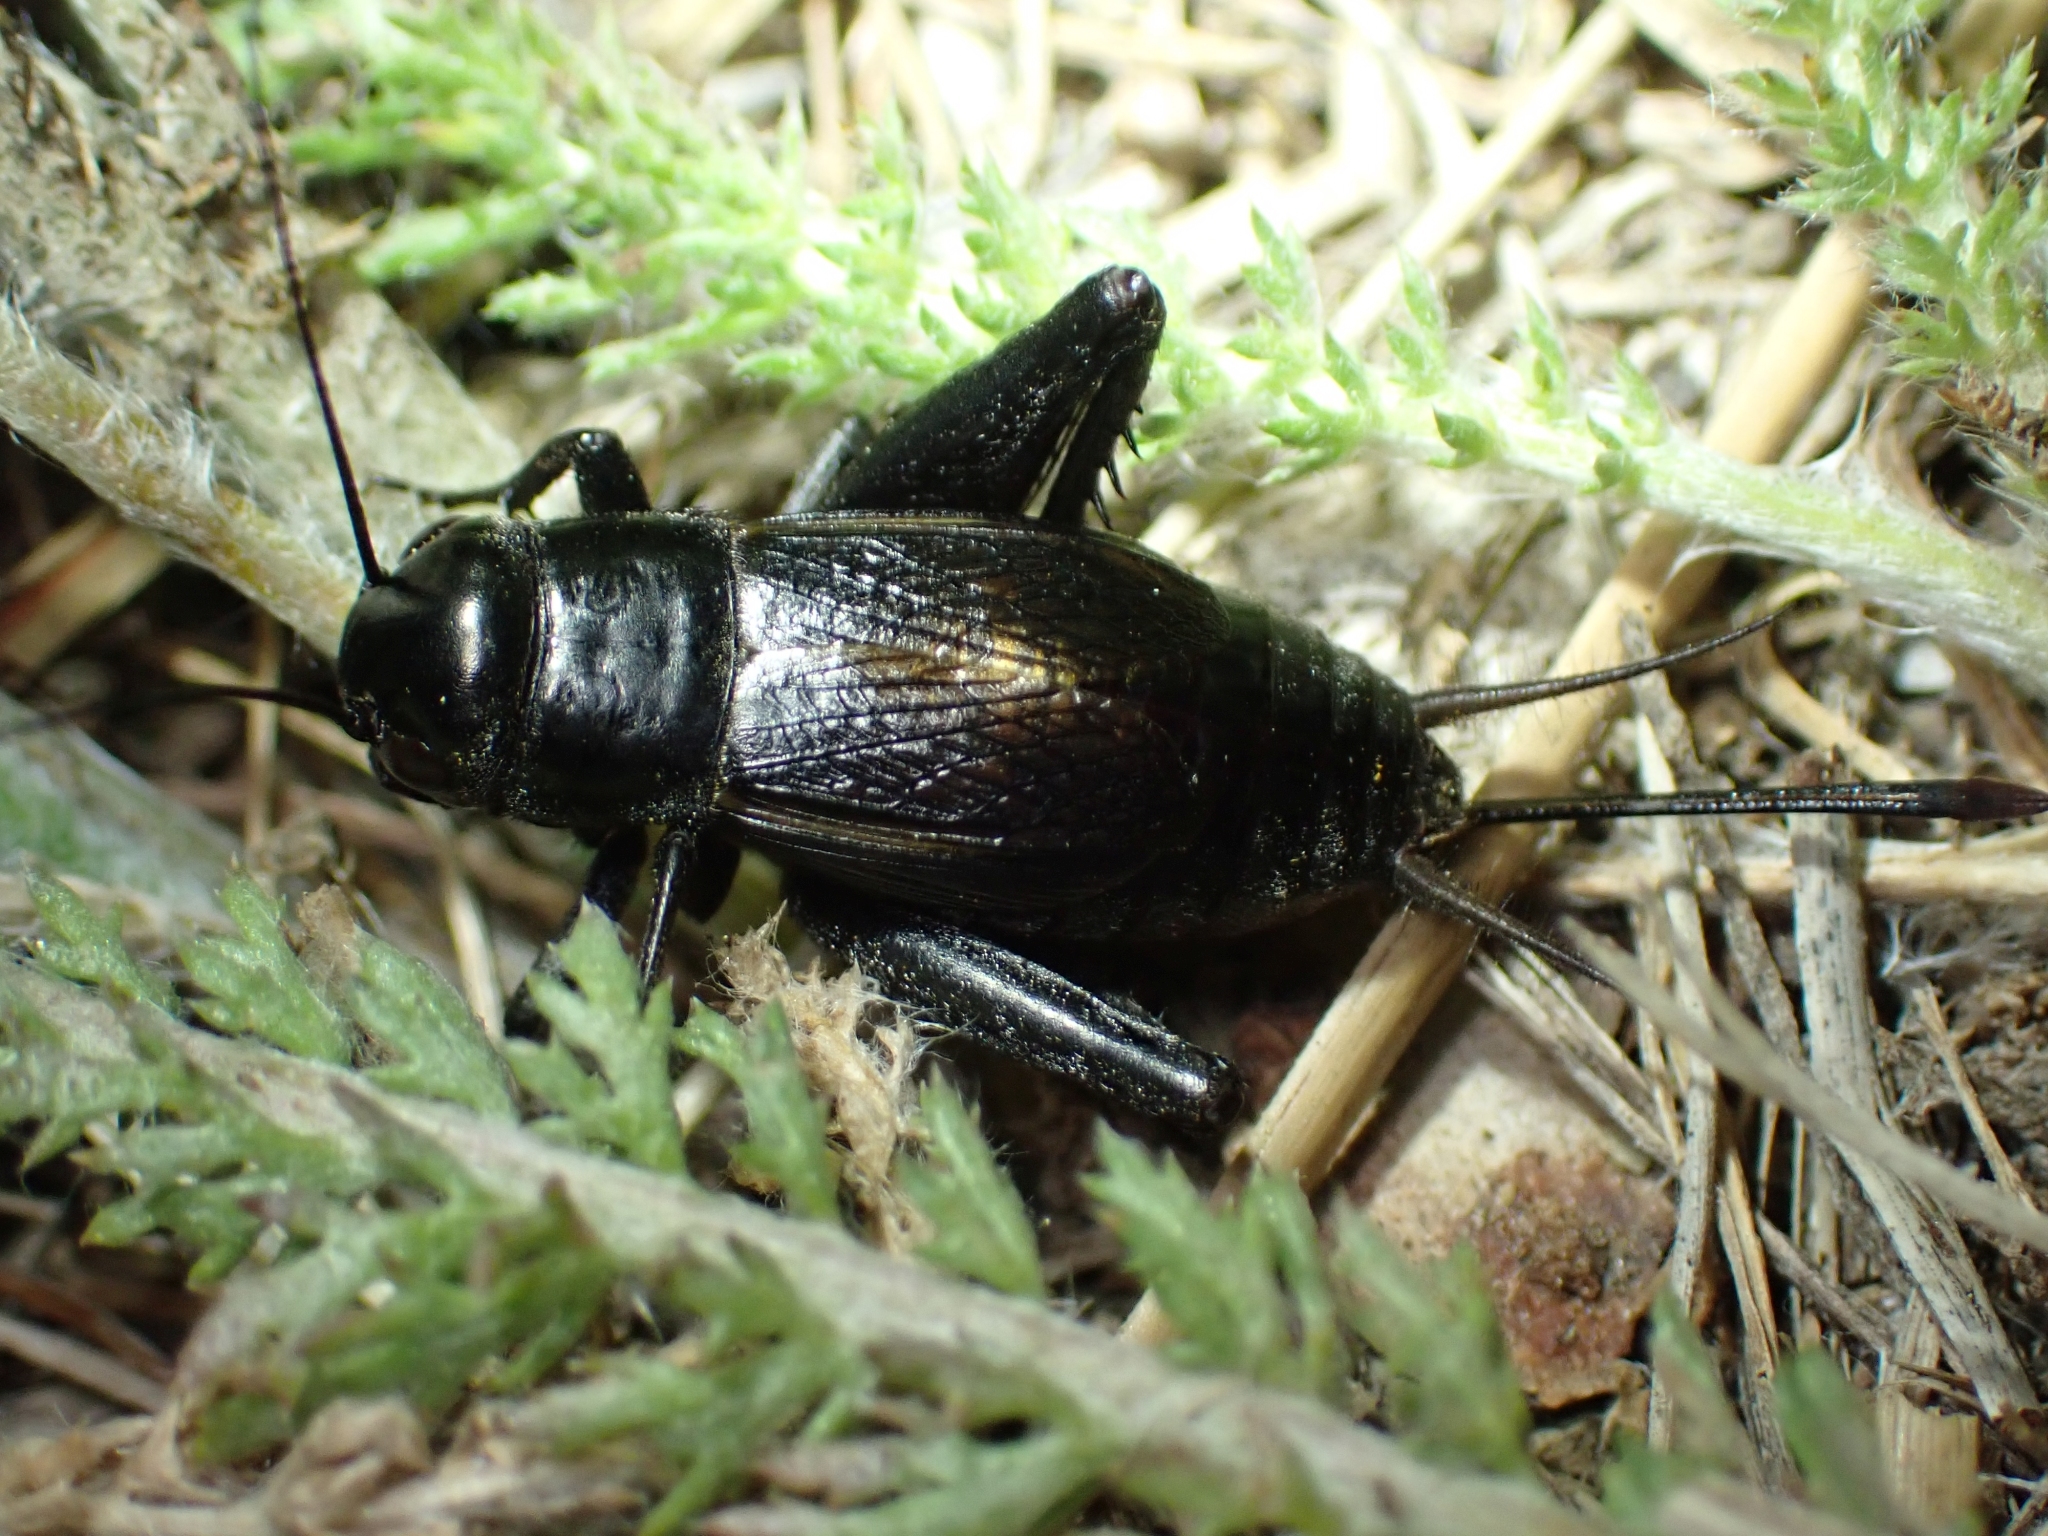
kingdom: Animalia
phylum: Arthropoda
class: Insecta
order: Orthoptera
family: Gryllidae
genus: Gryllus
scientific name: Gryllus veletis
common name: Spring field cricket
